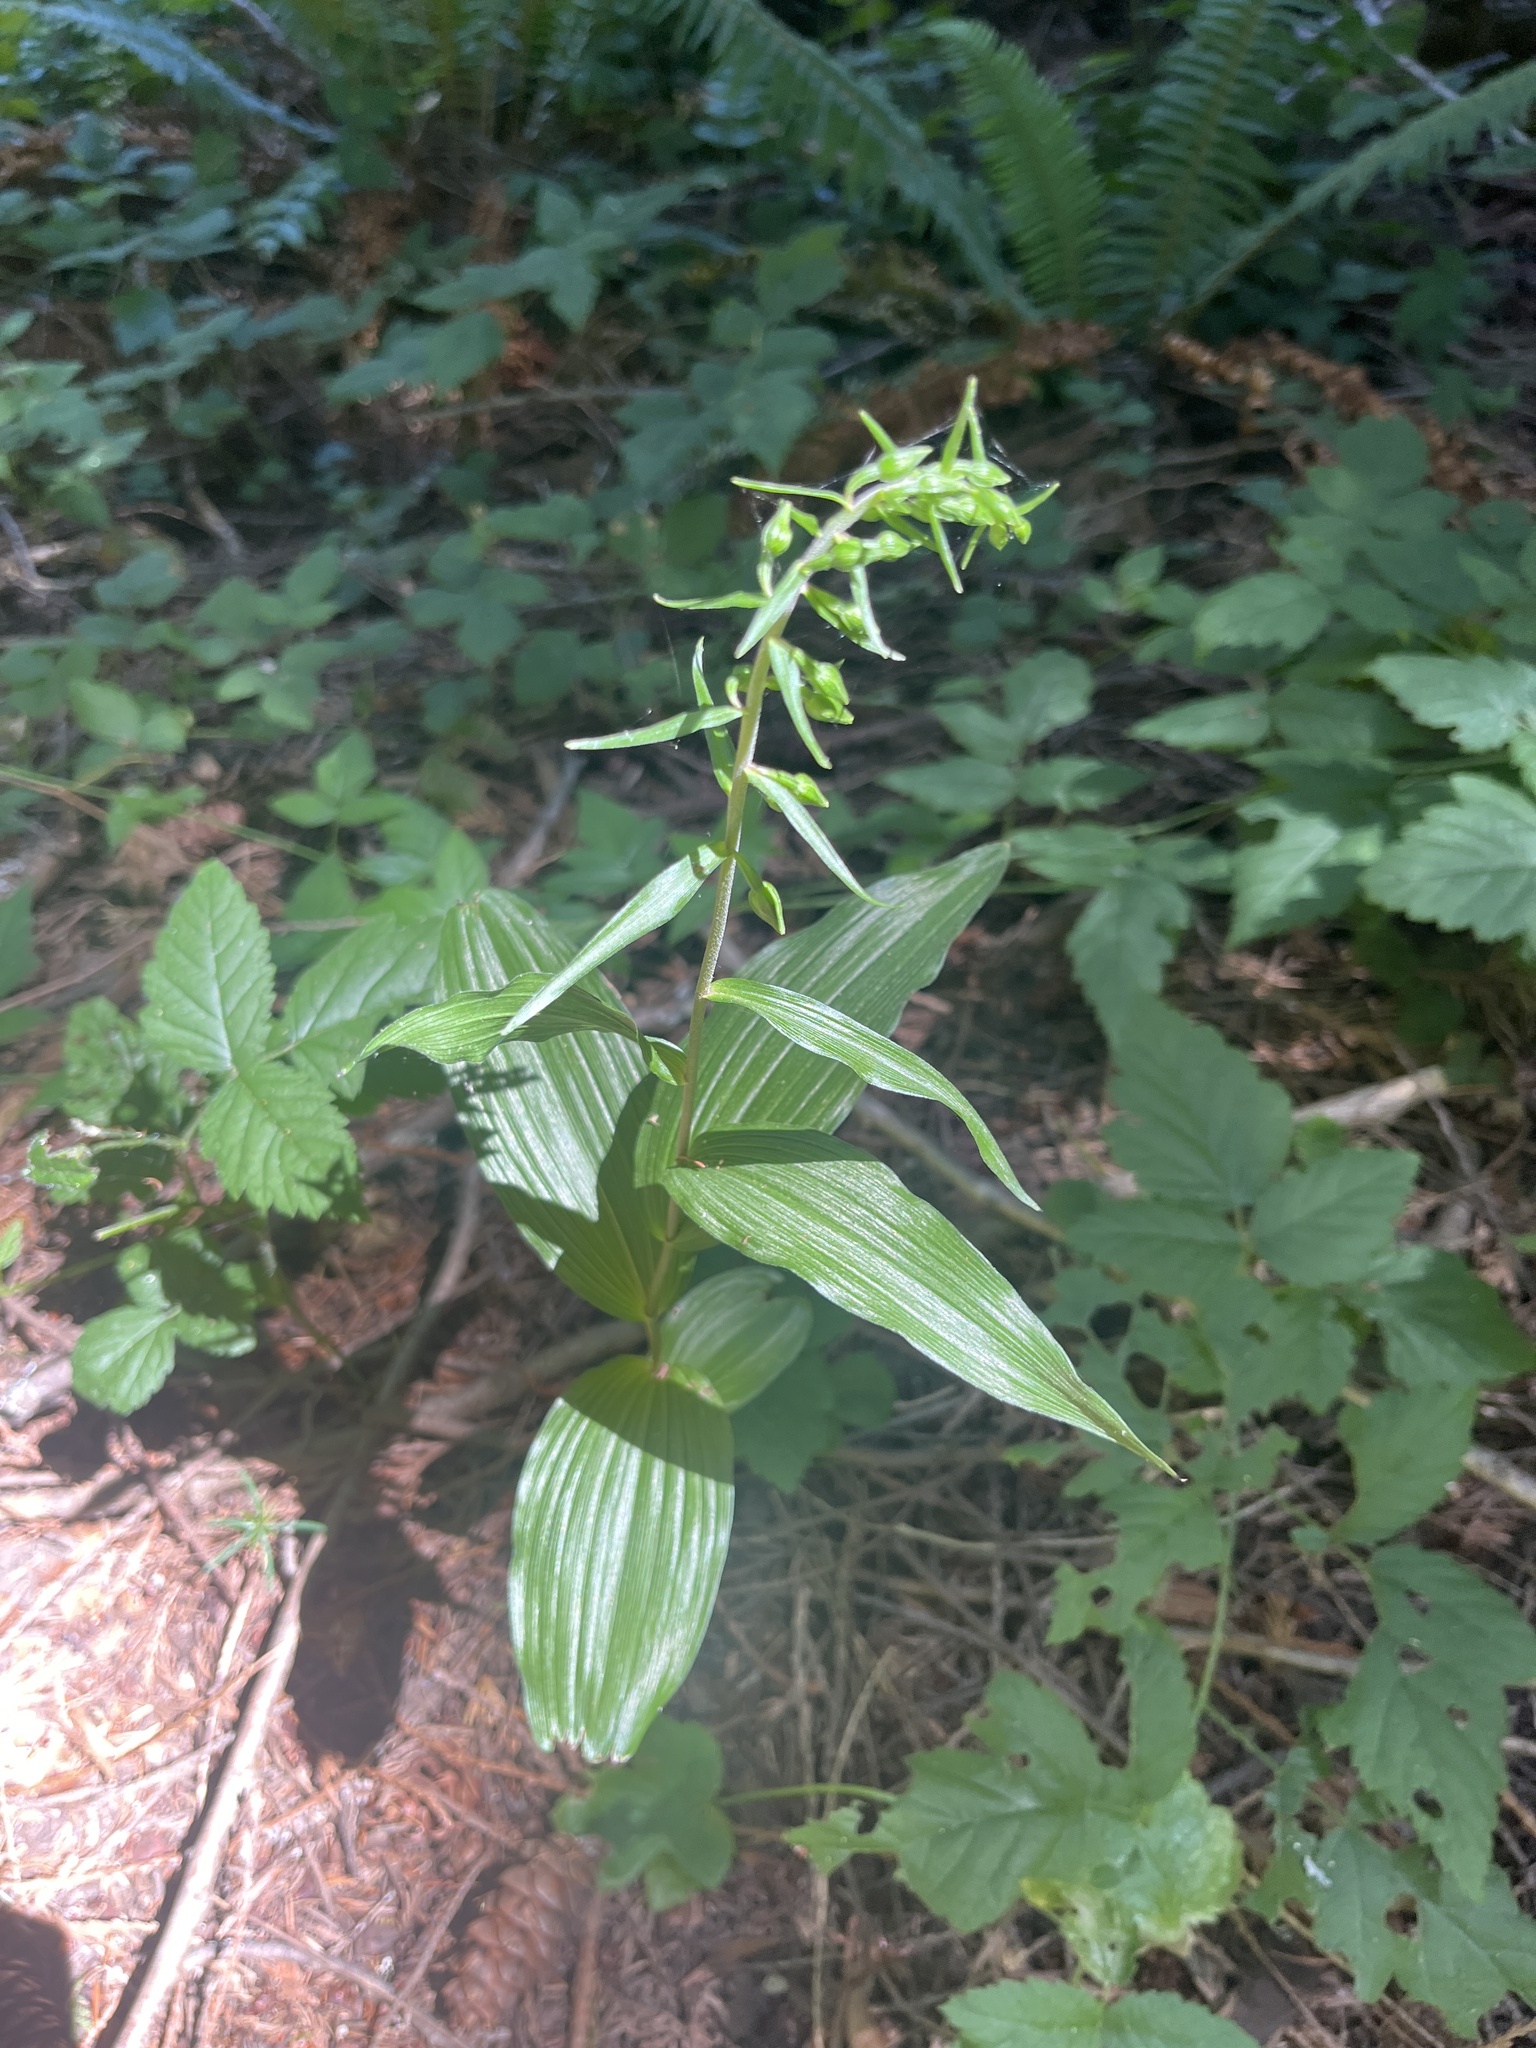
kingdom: Plantae
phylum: Tracheophyta
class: Liliopsida
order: Asparagales
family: Orchidaceae
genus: Epipactis
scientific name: Epipactis helleborine
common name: Broad-leaved helleborine
